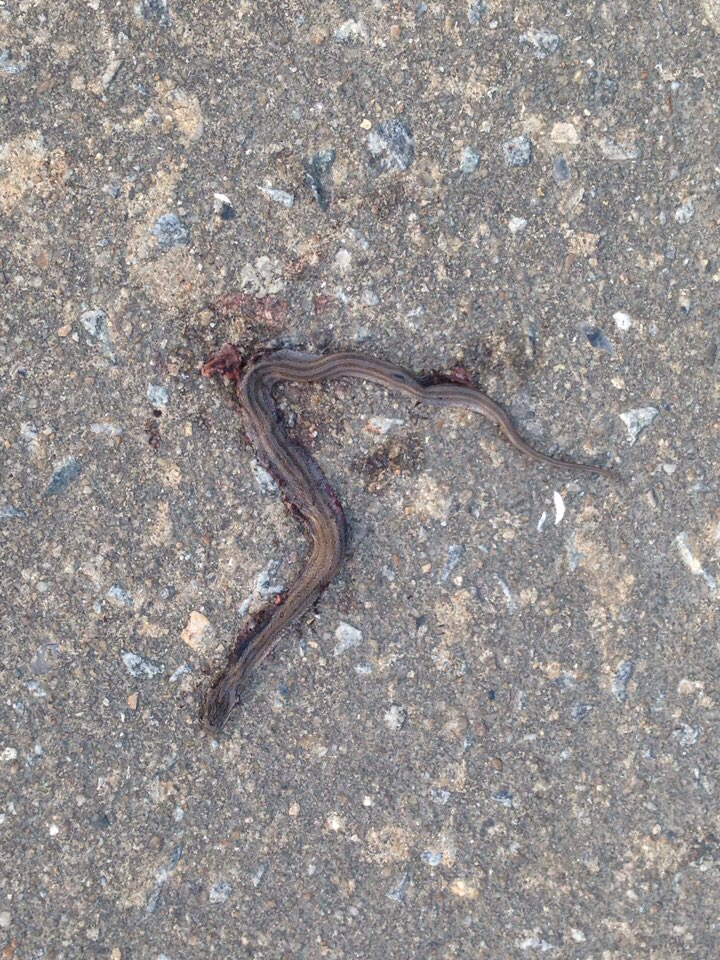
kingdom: Animalia
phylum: Chordata
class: Squamata
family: Colubridae
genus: Oocatochus
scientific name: Oocatochus rufodorsatus
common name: Frog-eating rat snake
